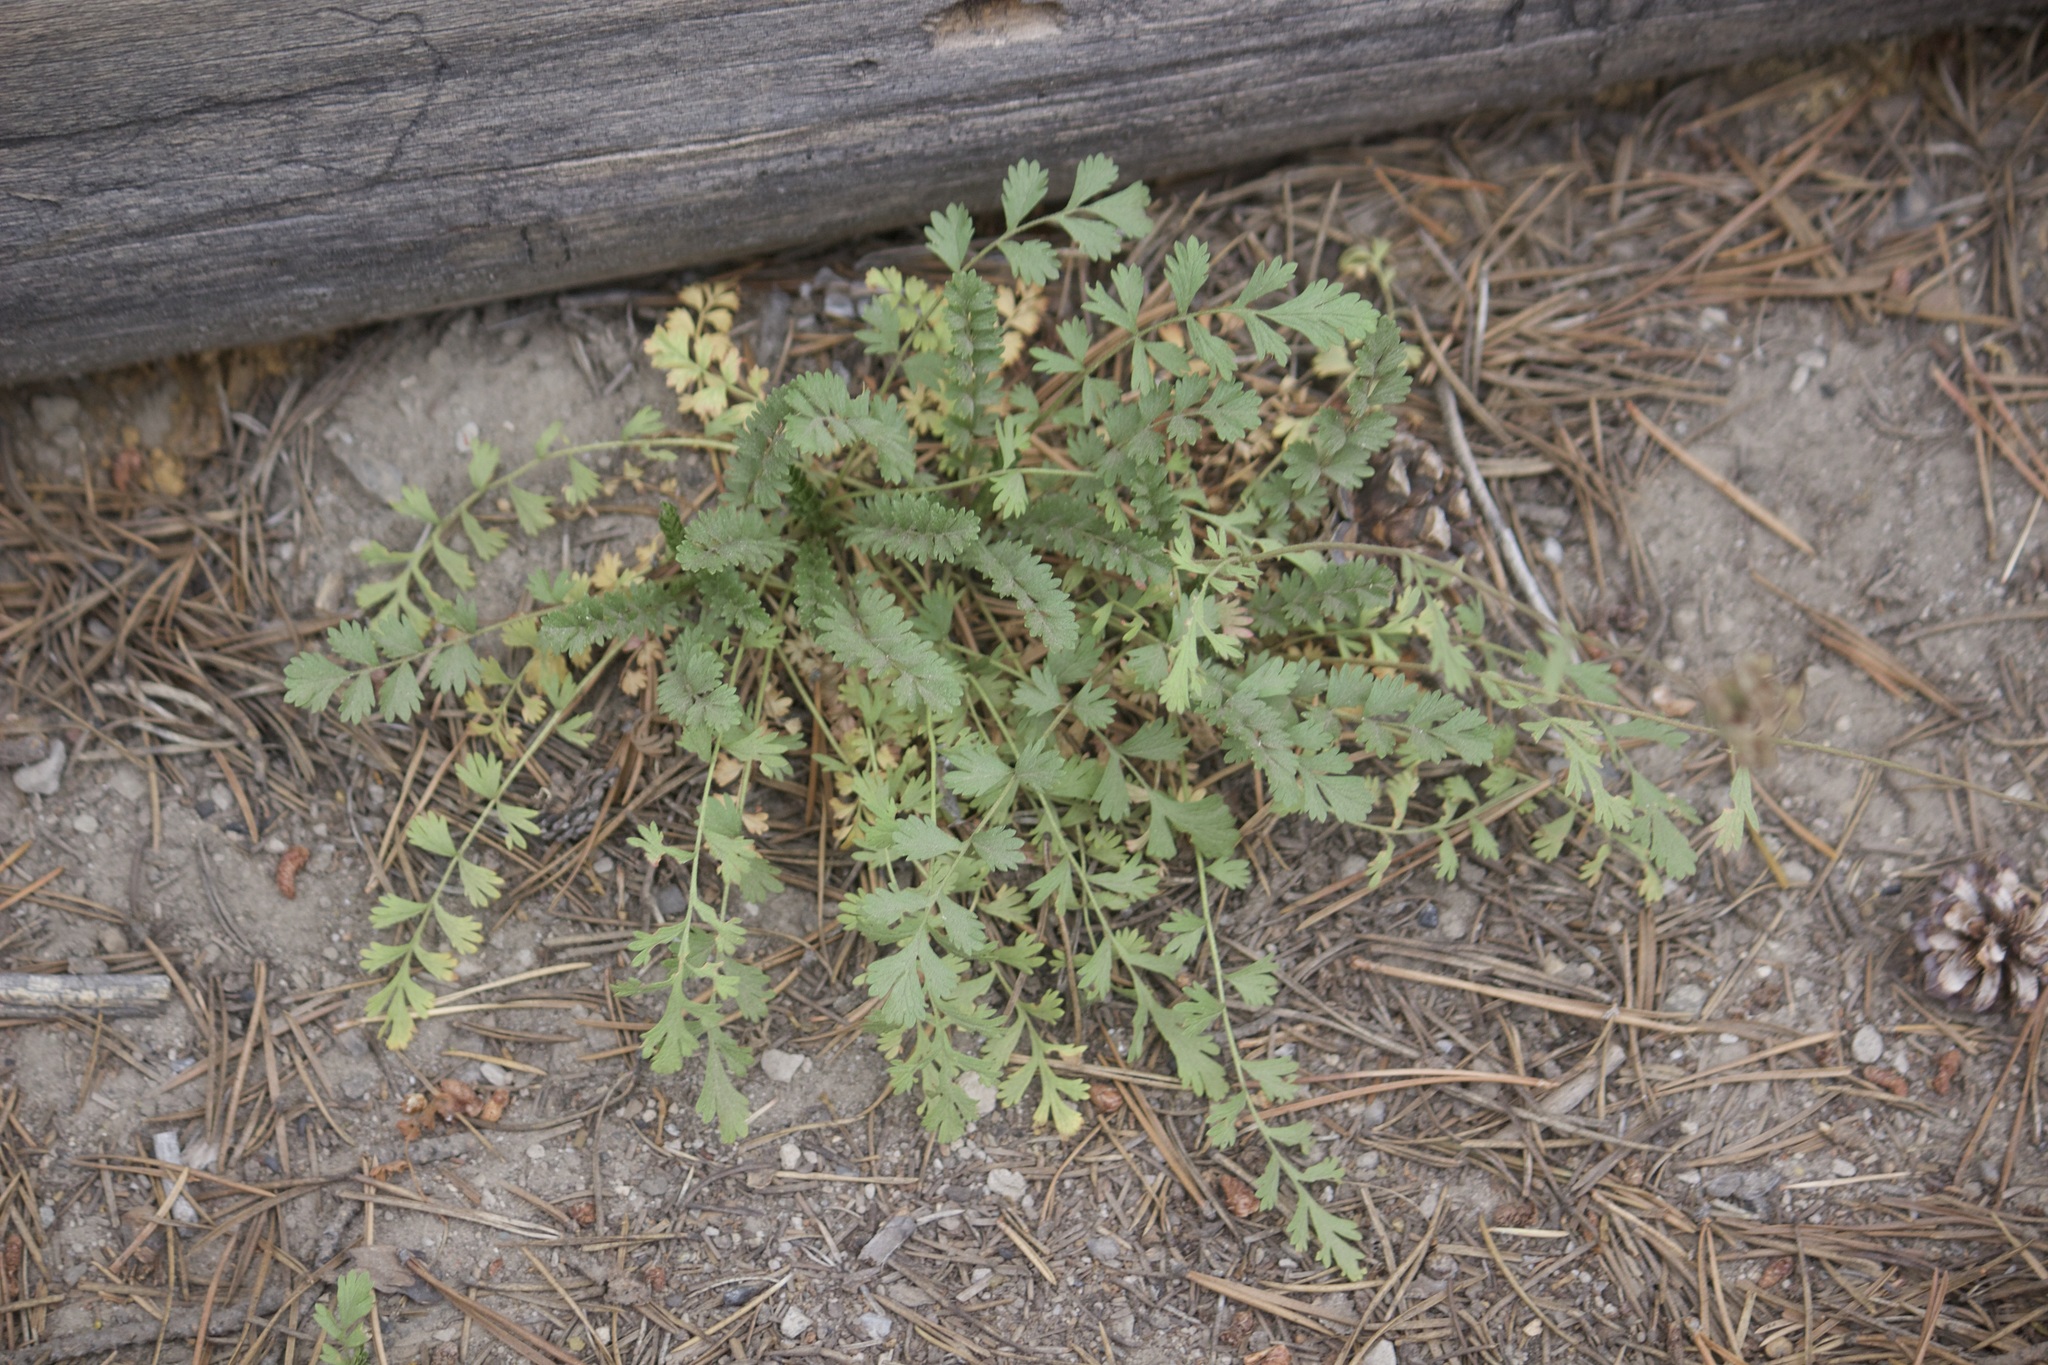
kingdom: Plantae
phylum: Tracheophyta
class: Magnoliopsida
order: Rosales
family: Rosaceae
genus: Potentilla
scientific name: Potentilla douglasii
